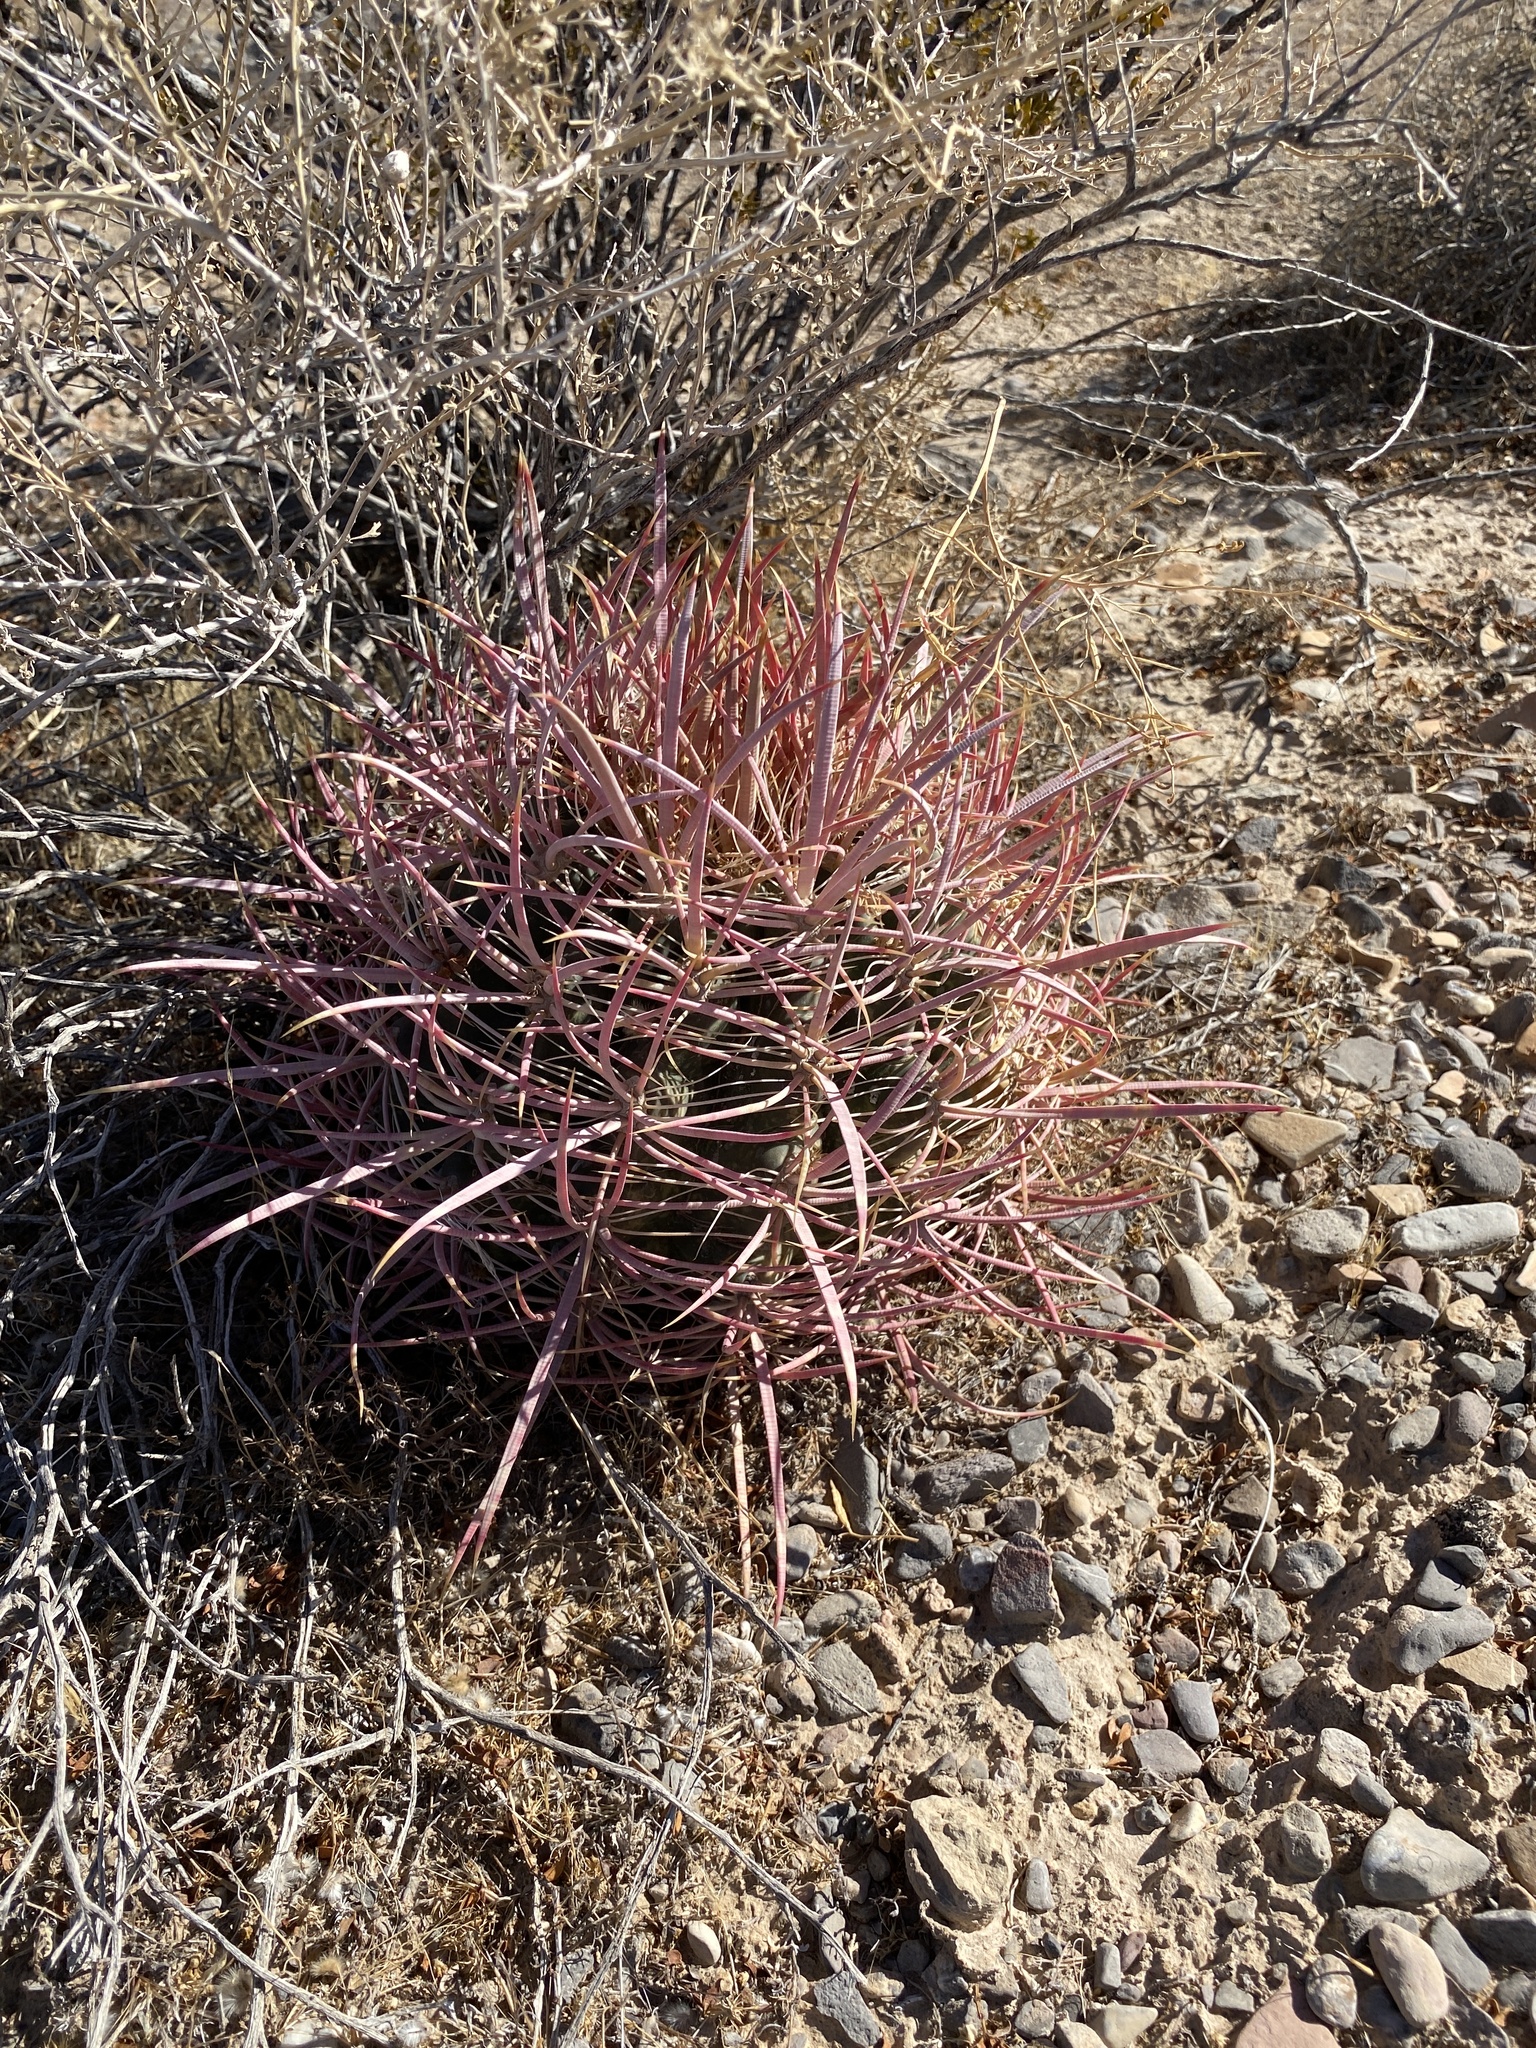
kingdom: Plantae
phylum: Tracheophyta
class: Magnoliopsida
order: Caryophyllales
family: Cactaceae
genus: Ferocactus
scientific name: Ferocactus cylindraceus
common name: California barrel cactus
